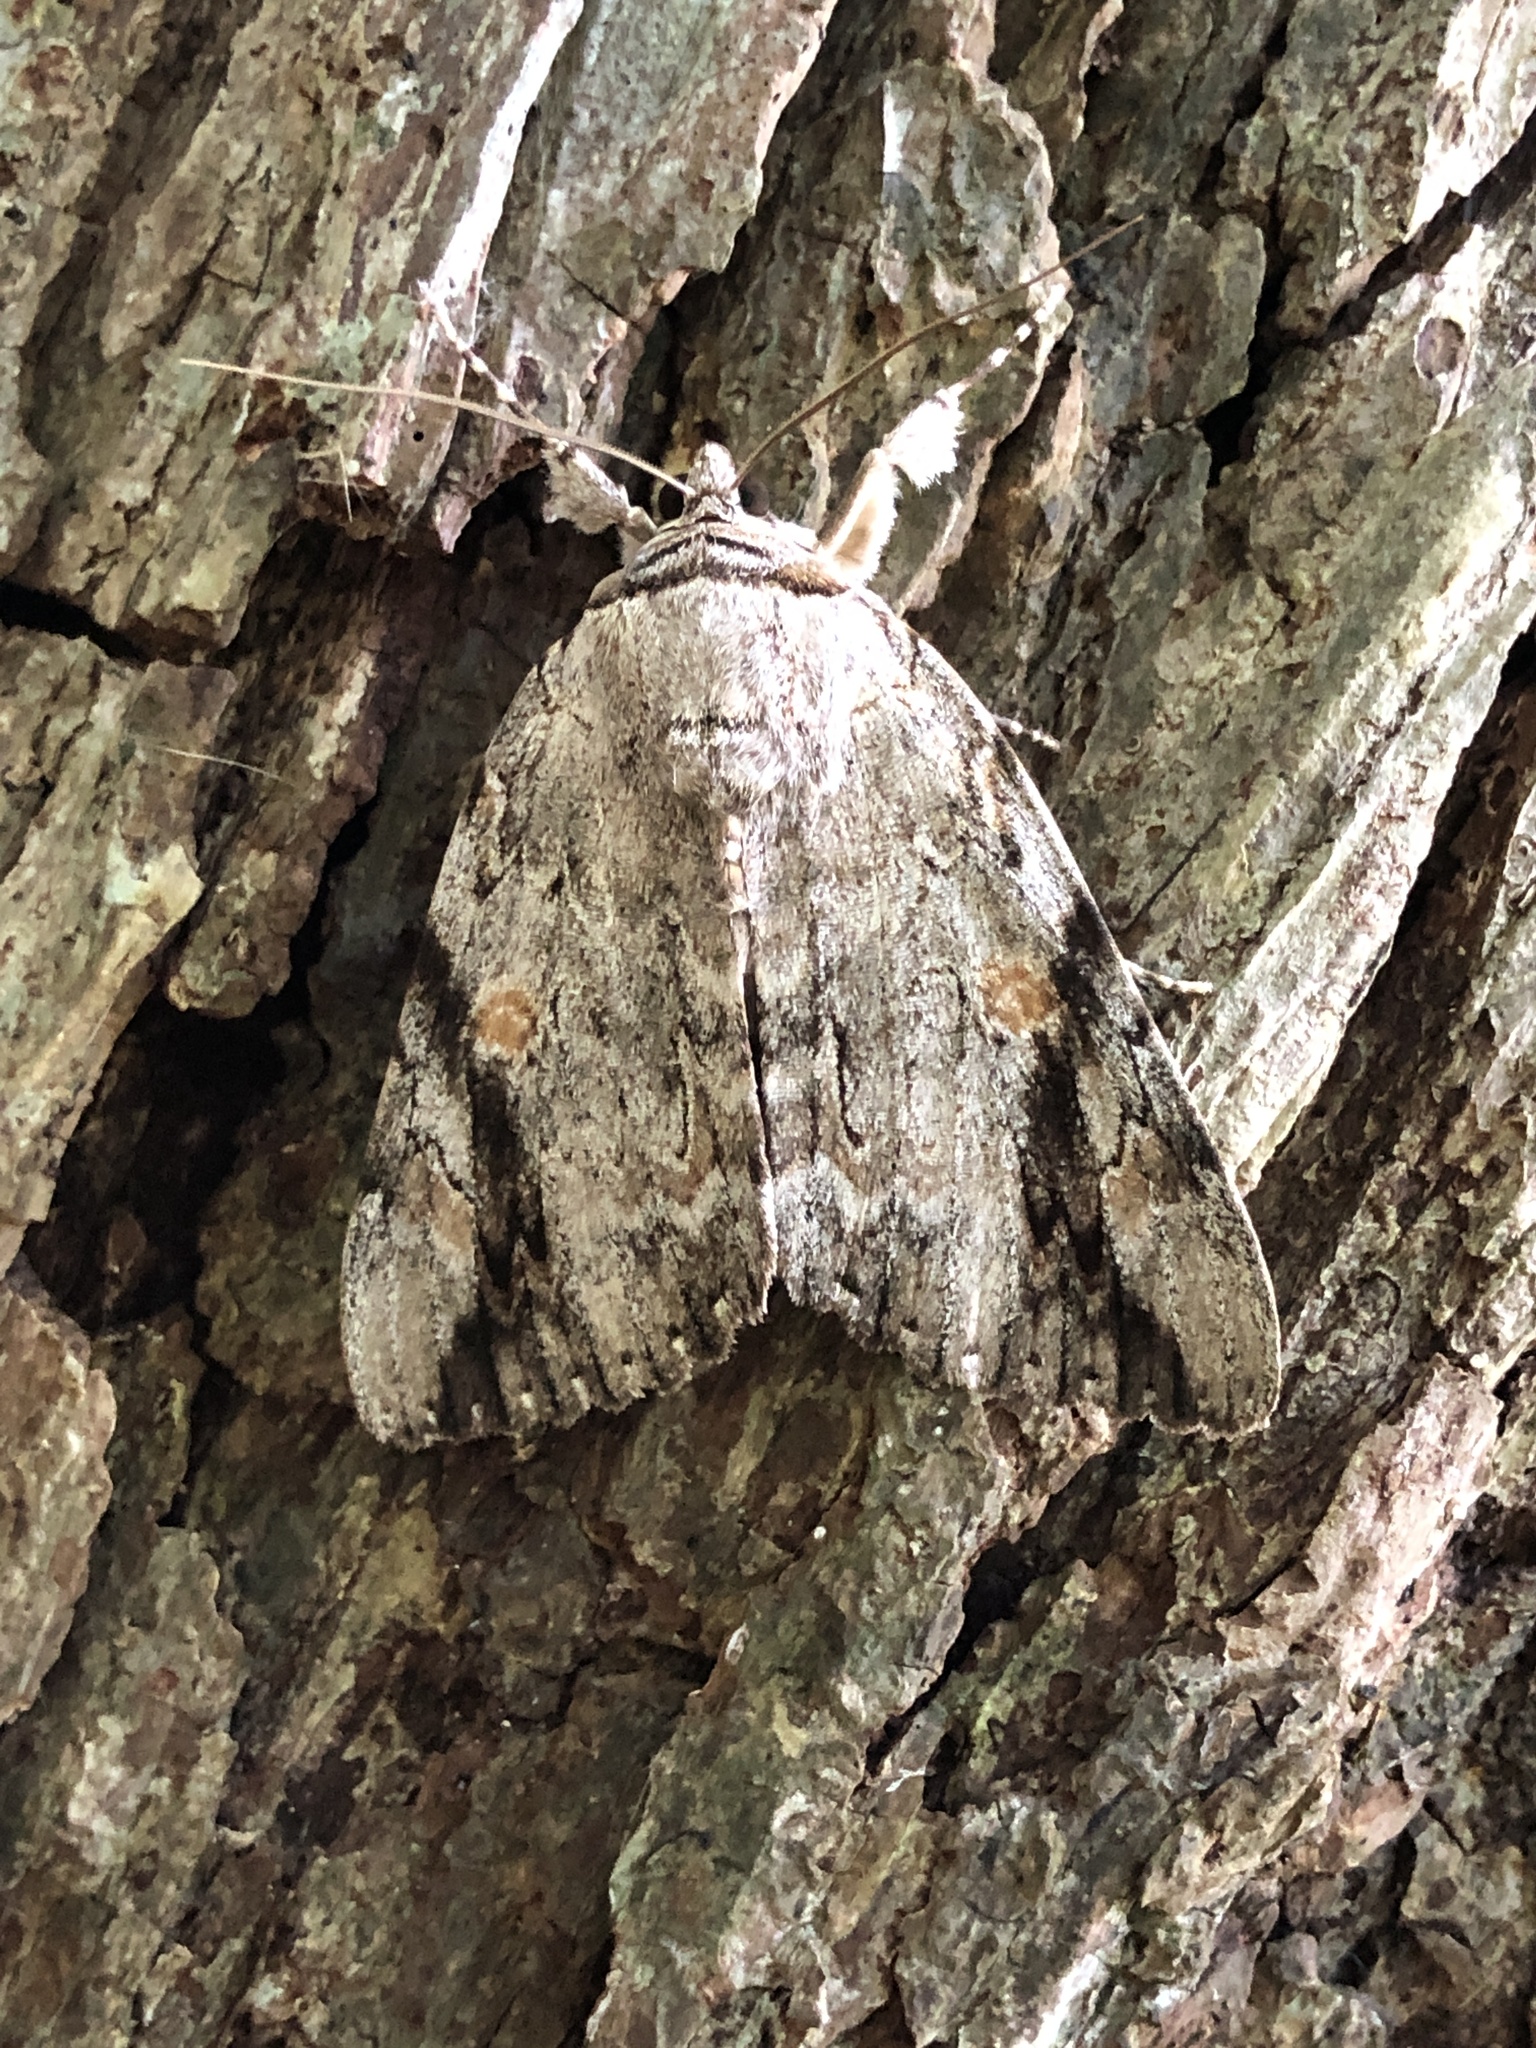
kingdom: Animalia
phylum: Arthropoda
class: Insecta
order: Lepidoptera
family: Erebidae
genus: Catocala
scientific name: Catocala maestosa
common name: Sad underwing
